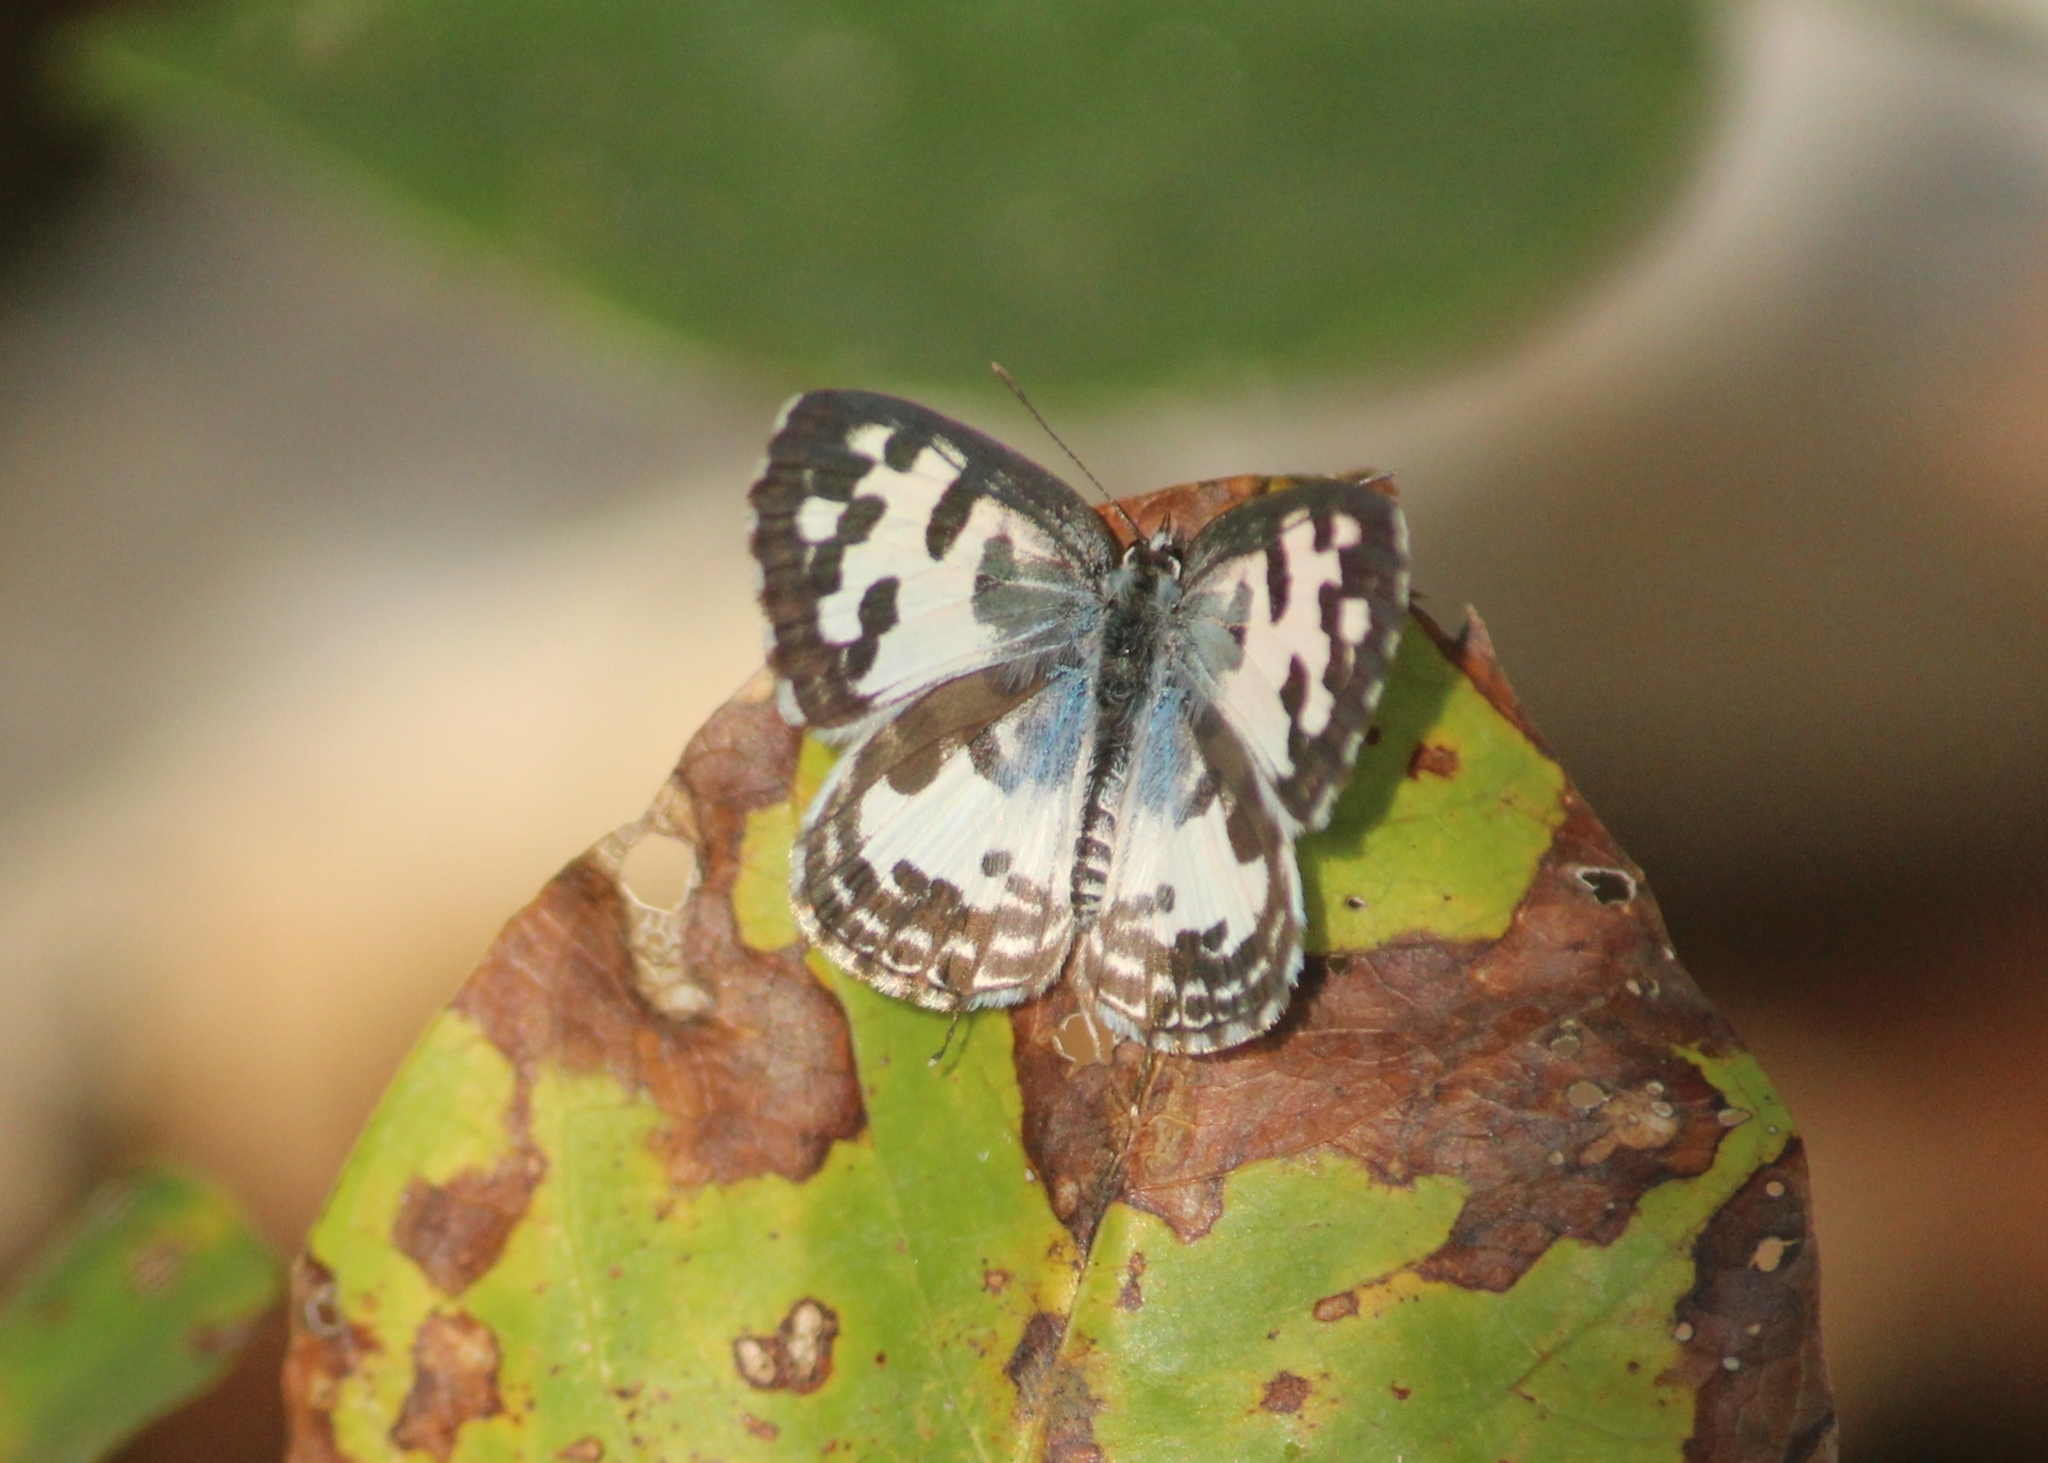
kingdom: Animalia
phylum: Arthropoda
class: Insecta
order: Lepidoptera
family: Lycaenidae
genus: Castalius
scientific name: Castalius rosimon
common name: Common pierrot
